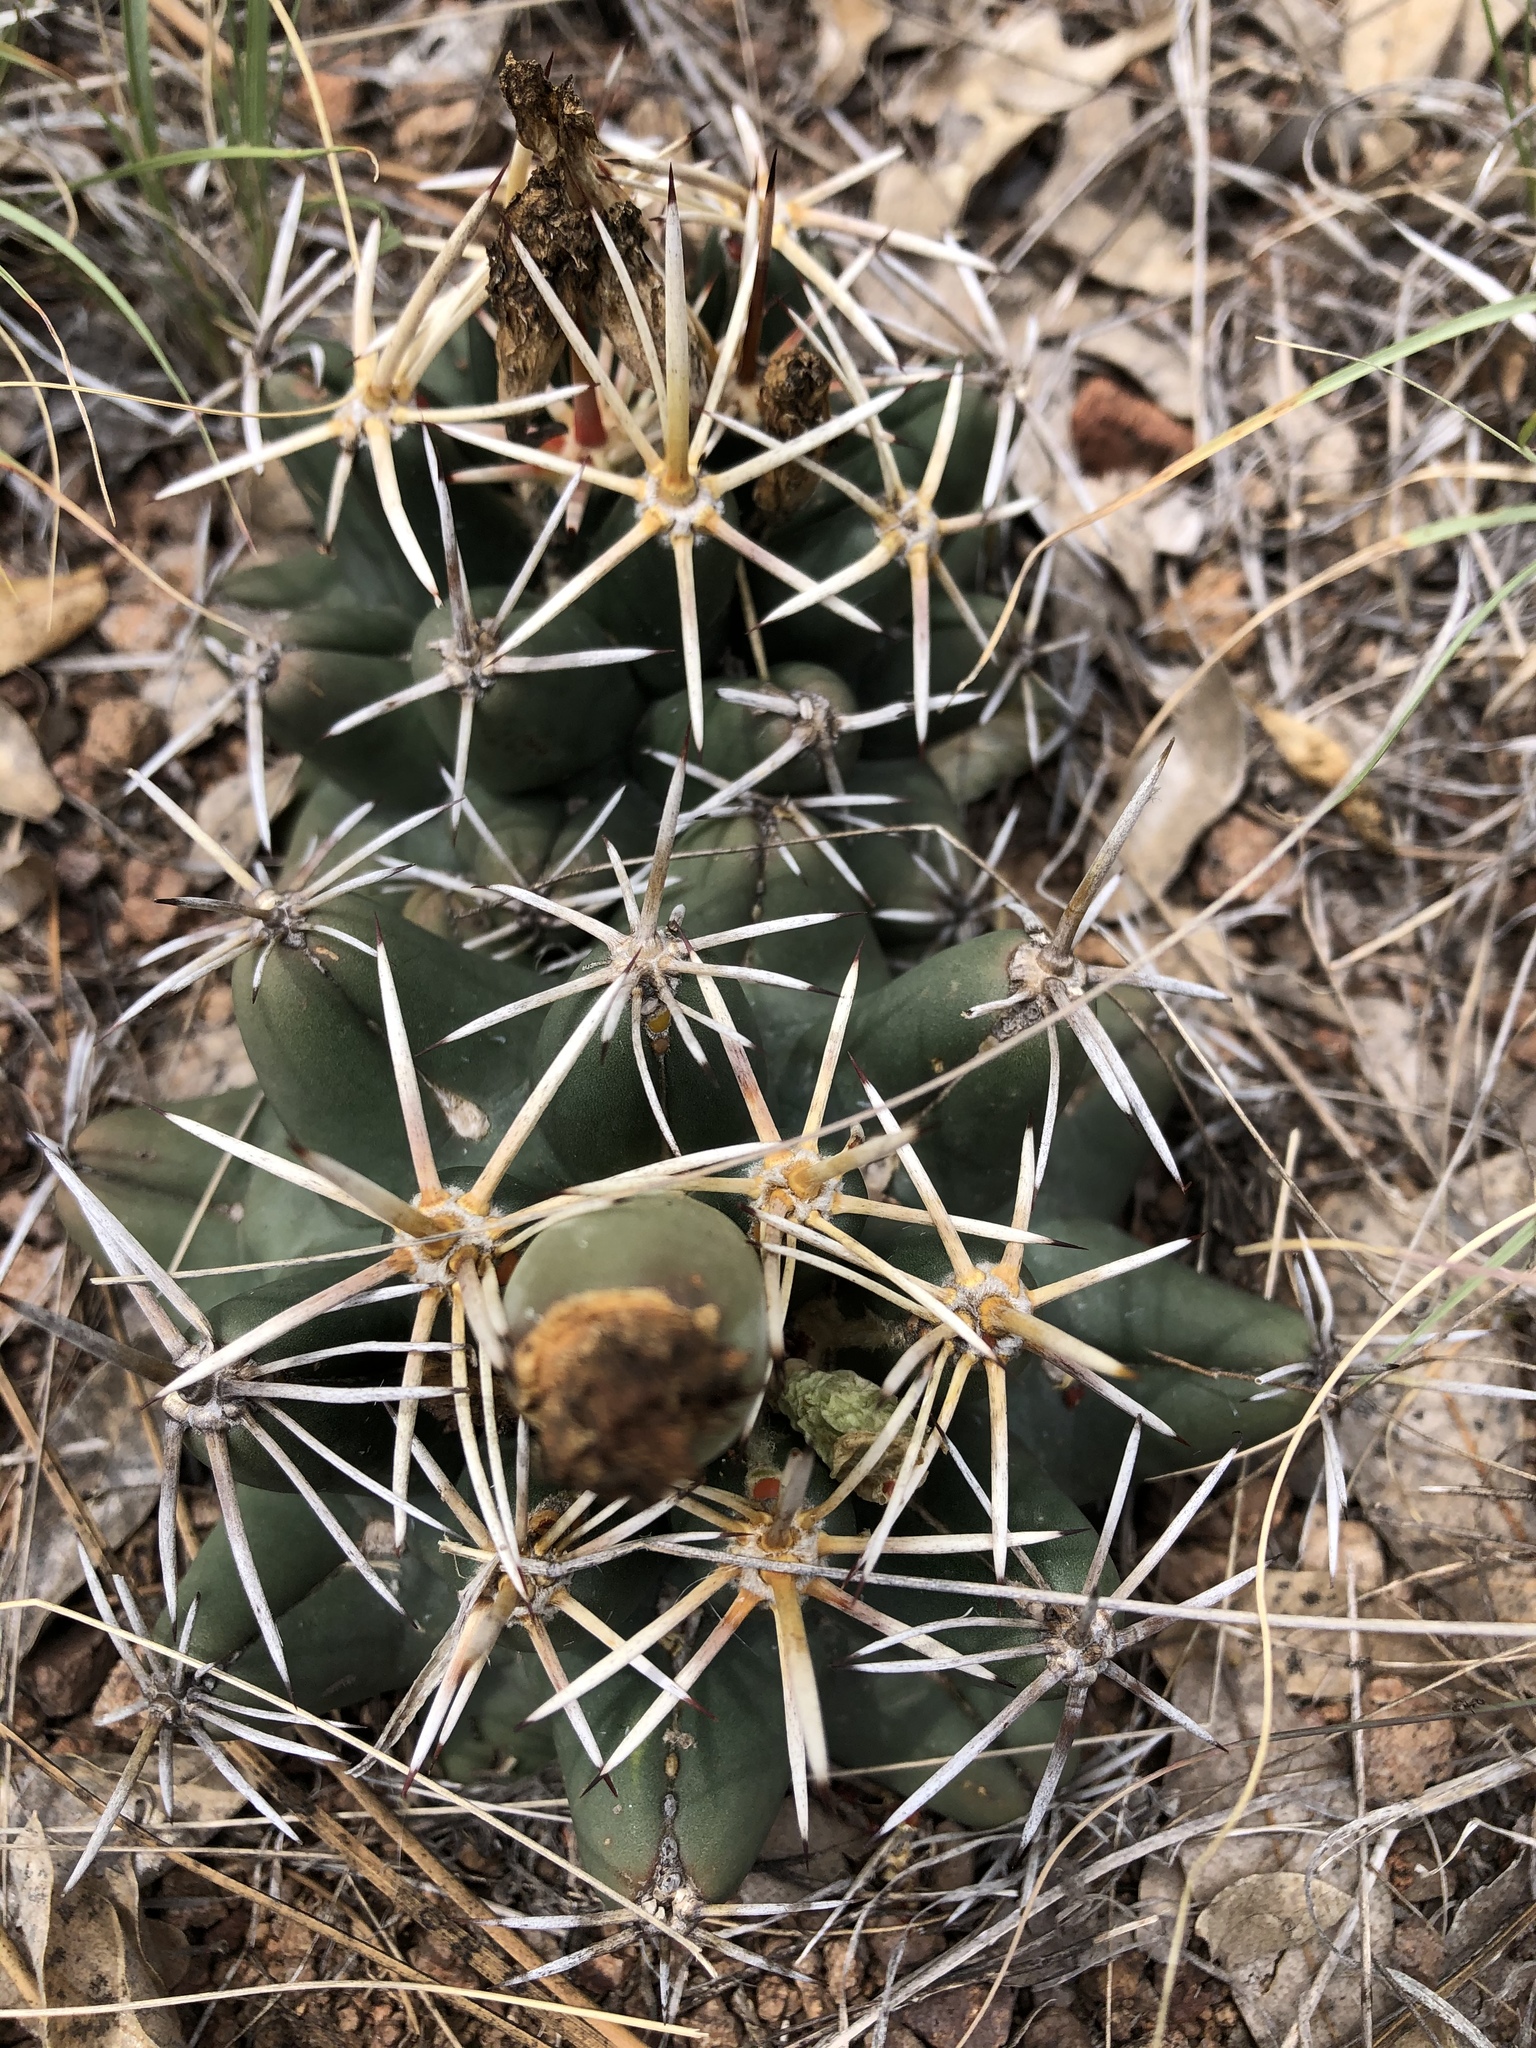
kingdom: Plantae
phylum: Tracheophyta
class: Magnoliopsida
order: Caryophyllales
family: Cactaceae
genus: Coryphantha
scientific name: Coryphantha robustispina
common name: Pima pineapple cactus
